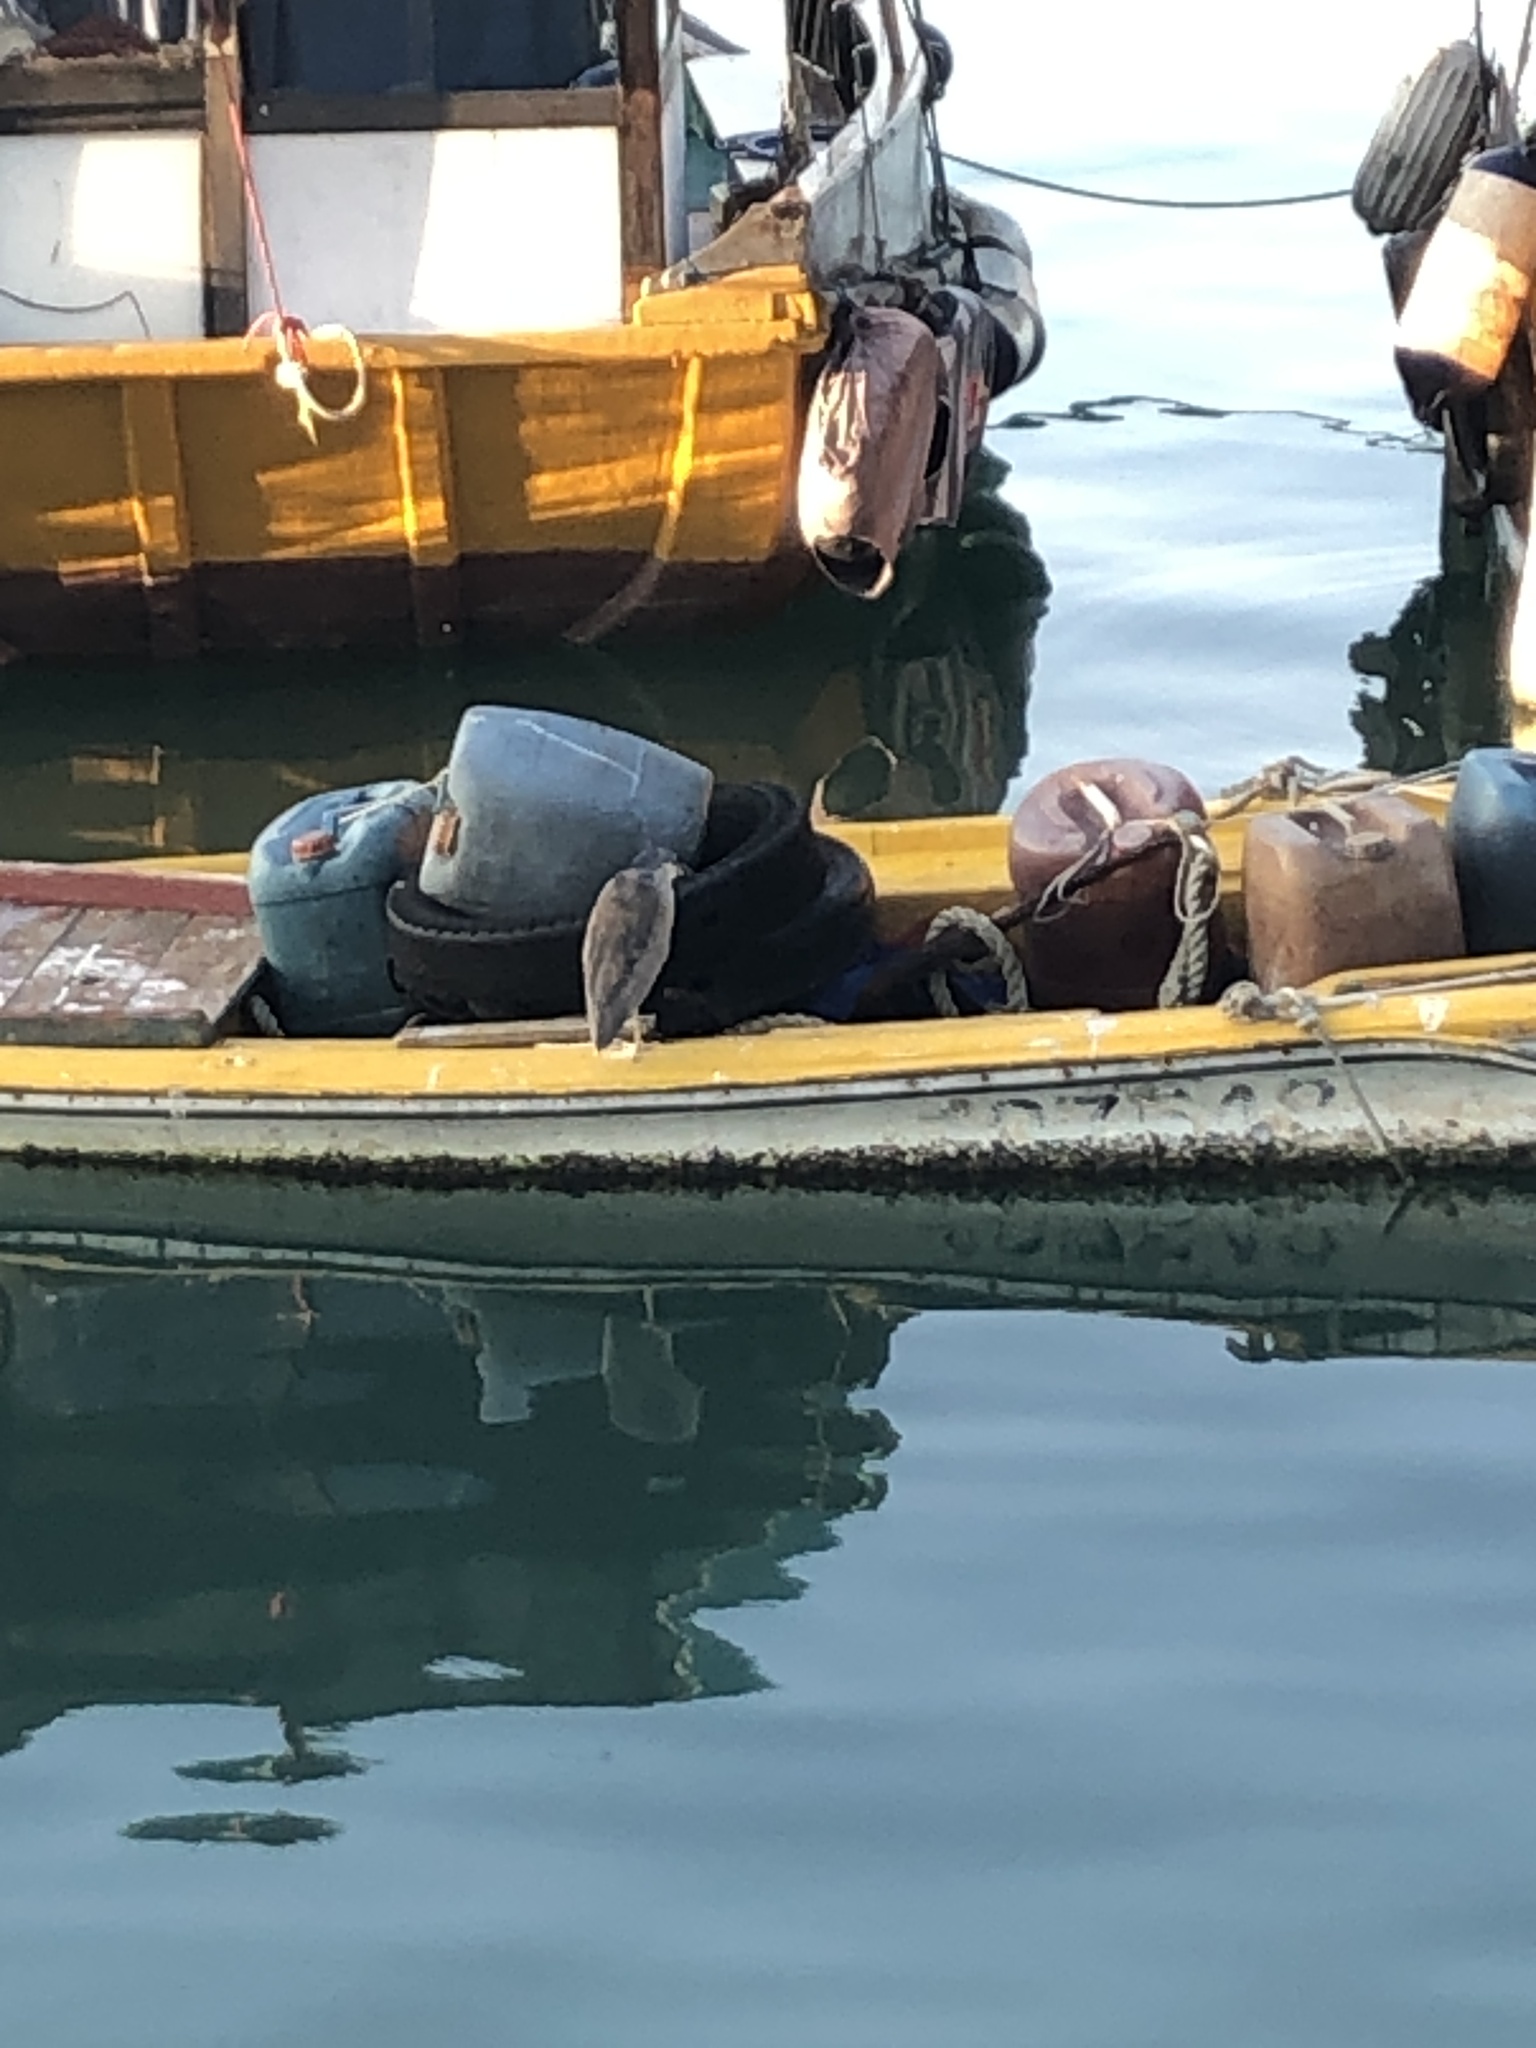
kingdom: Animalia
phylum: Chordata
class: Aves
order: Pelecaniformes
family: Ardeidae
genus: Nycticorax
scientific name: Nycticorax nycticorax
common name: Black-crowned night heron
